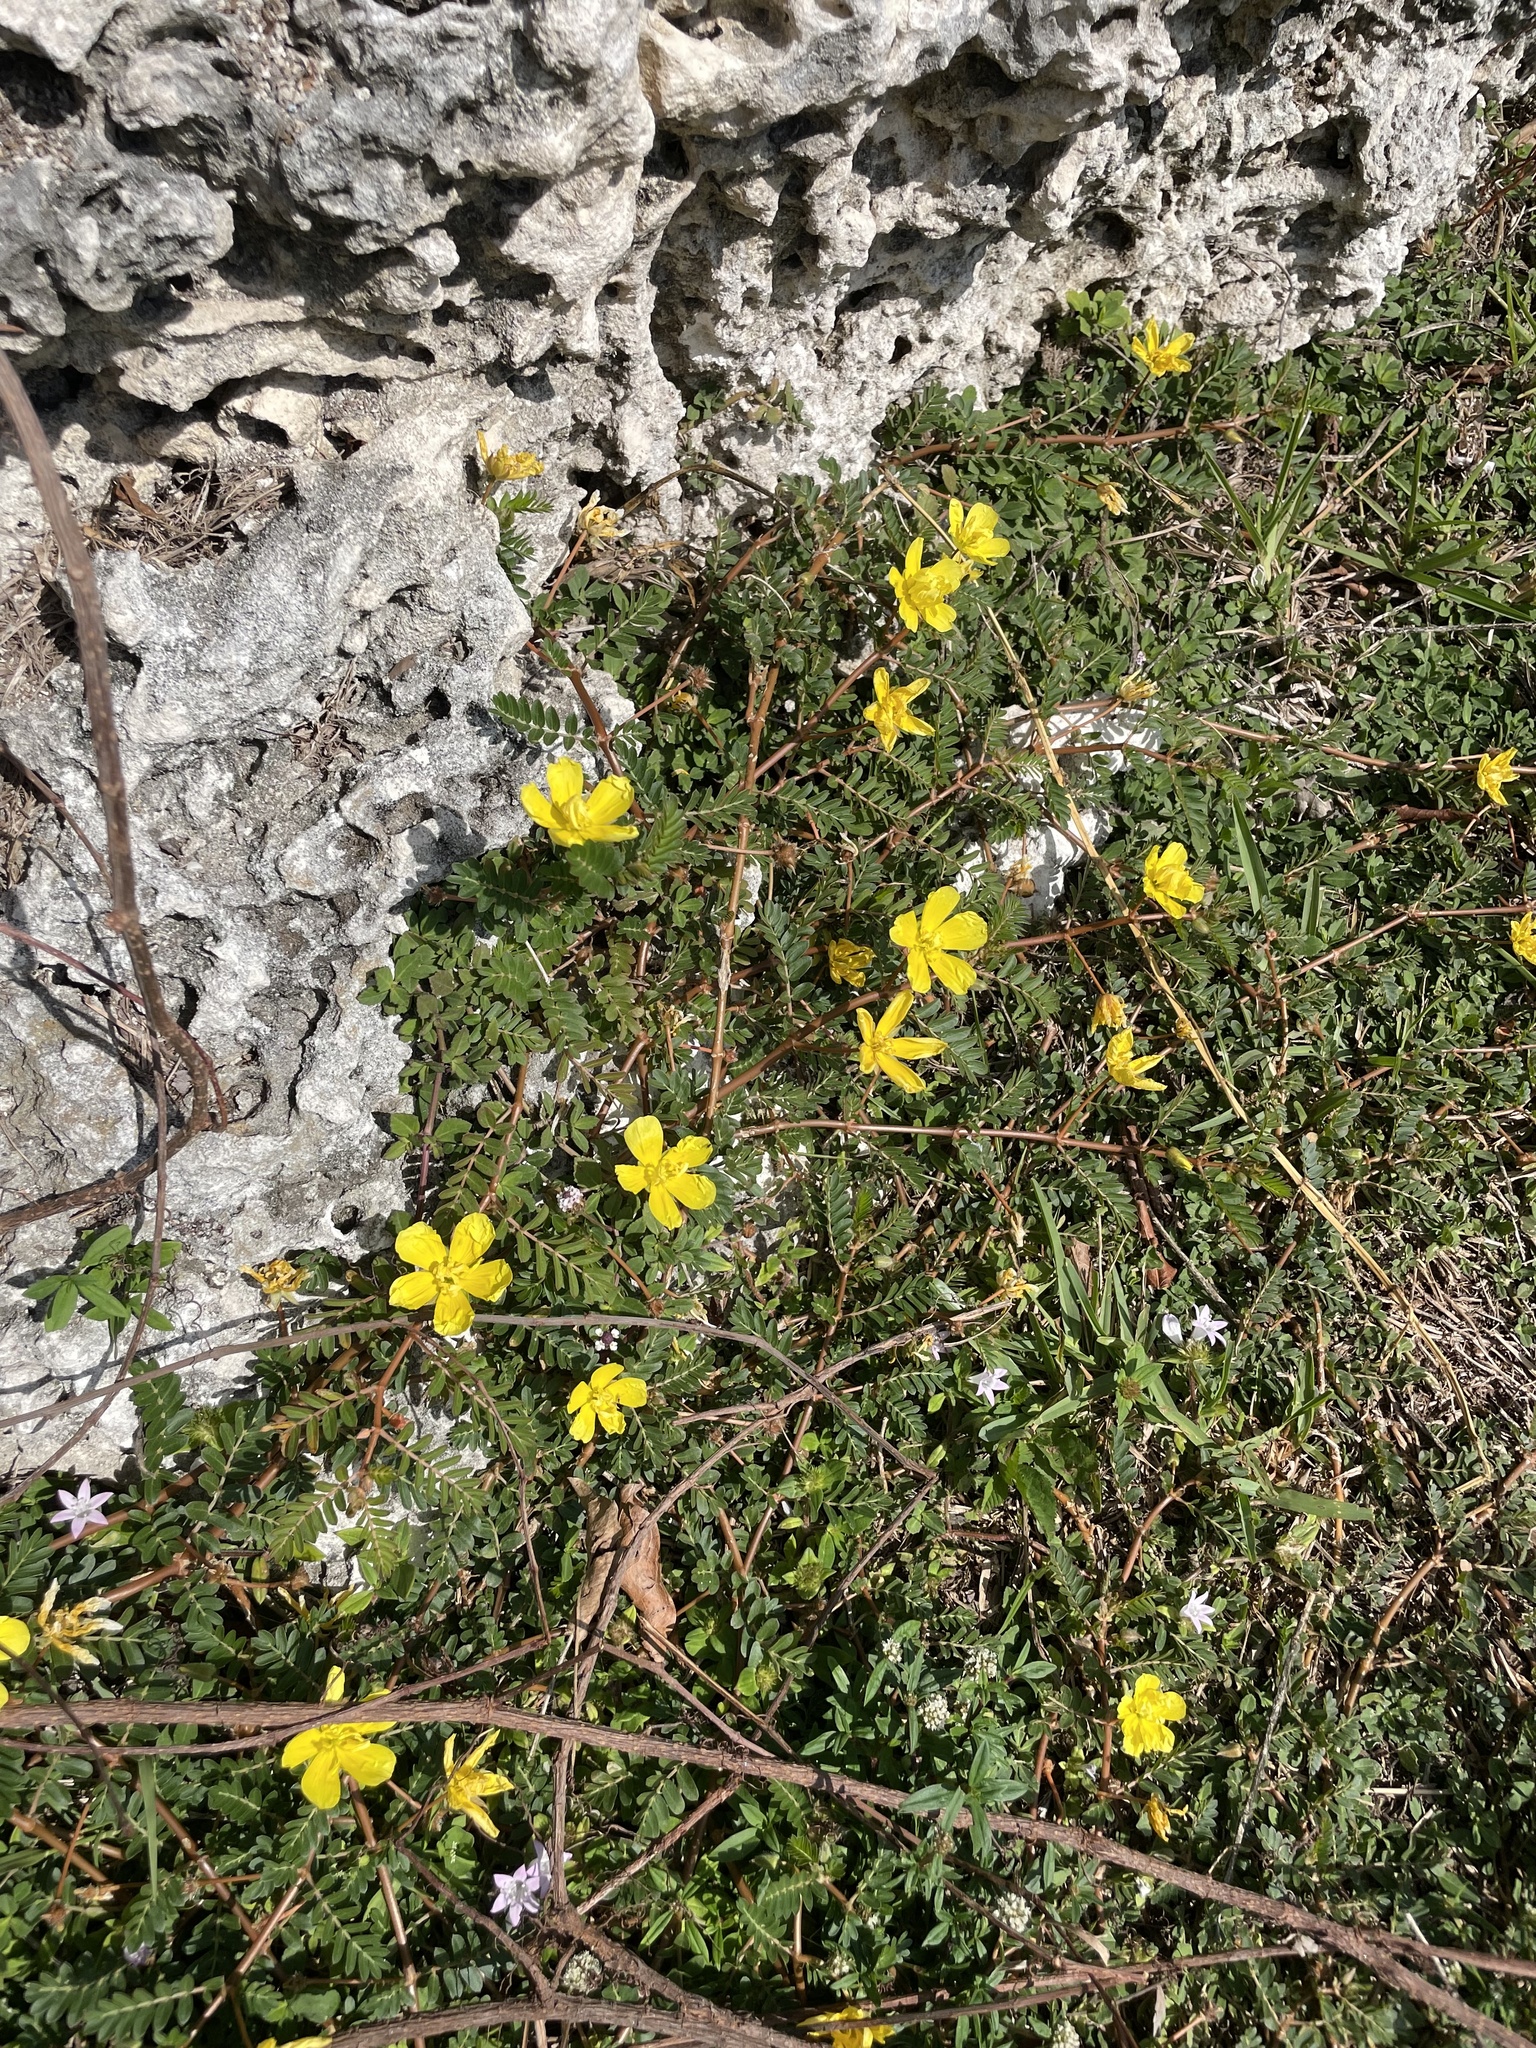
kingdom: Plantae
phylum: Tracheophyta
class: Magnoliopsida
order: Zygophyllales
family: Zygophyllaceae
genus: Tribulus
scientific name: Tribulus cistoides
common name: Jamaican feverplant
